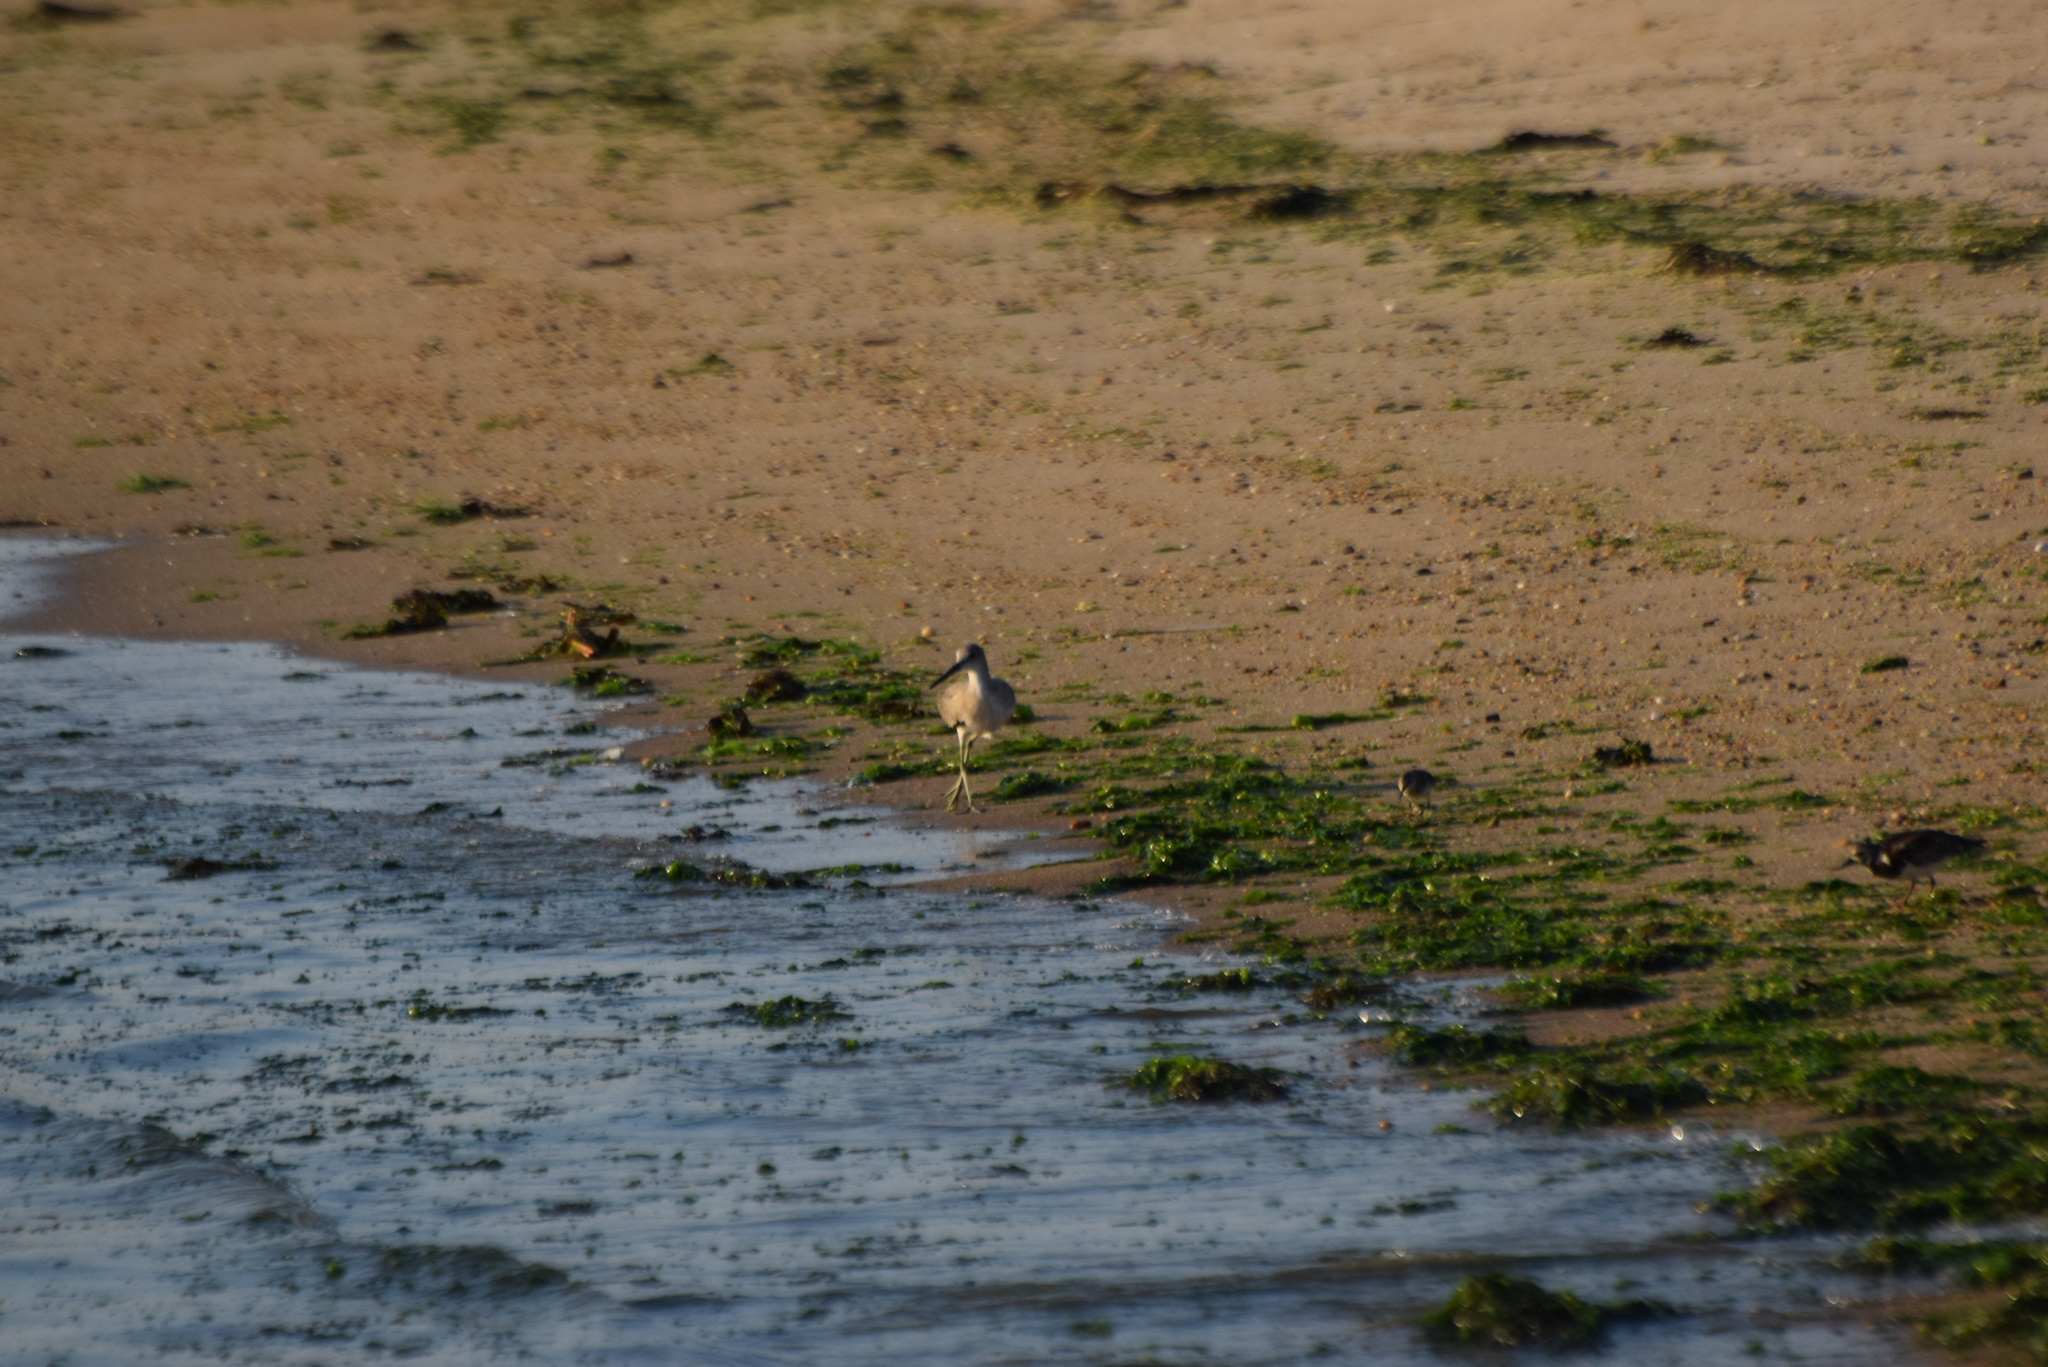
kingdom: Animalia
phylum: Chordata
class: Aves
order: Charadriiformes
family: Scolopacidae
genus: Tringa
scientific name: Tringa semipalmata
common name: Willet
